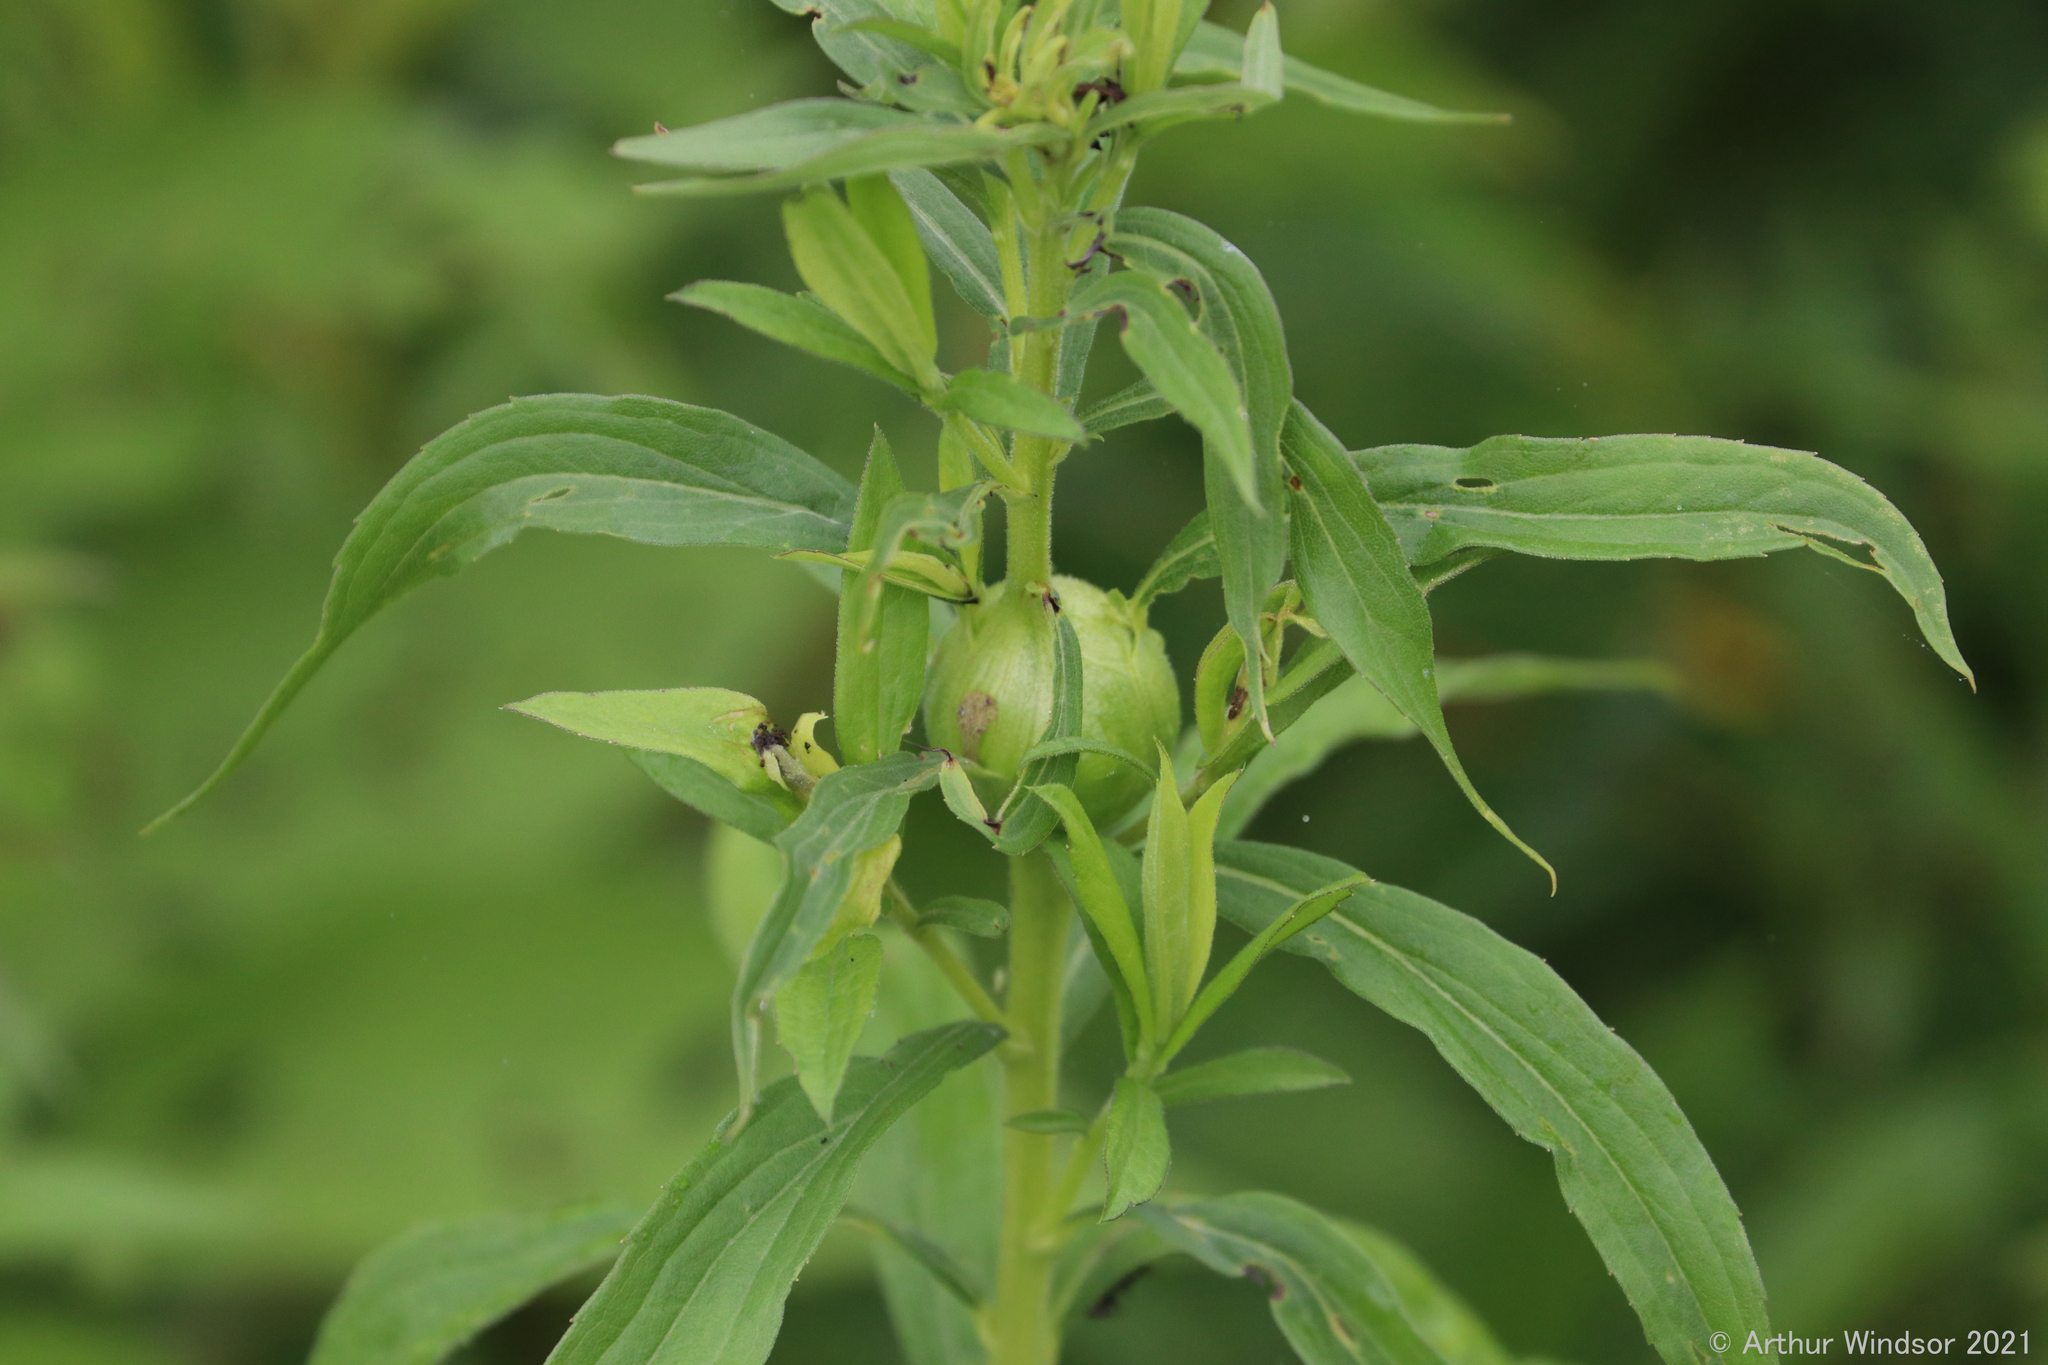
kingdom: Animalia
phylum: Arthropoda
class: Insecta
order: Diptera
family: Tephritidae
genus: Eurosta
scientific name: Eurosta solidaginis
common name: Goldenrod gall fly
